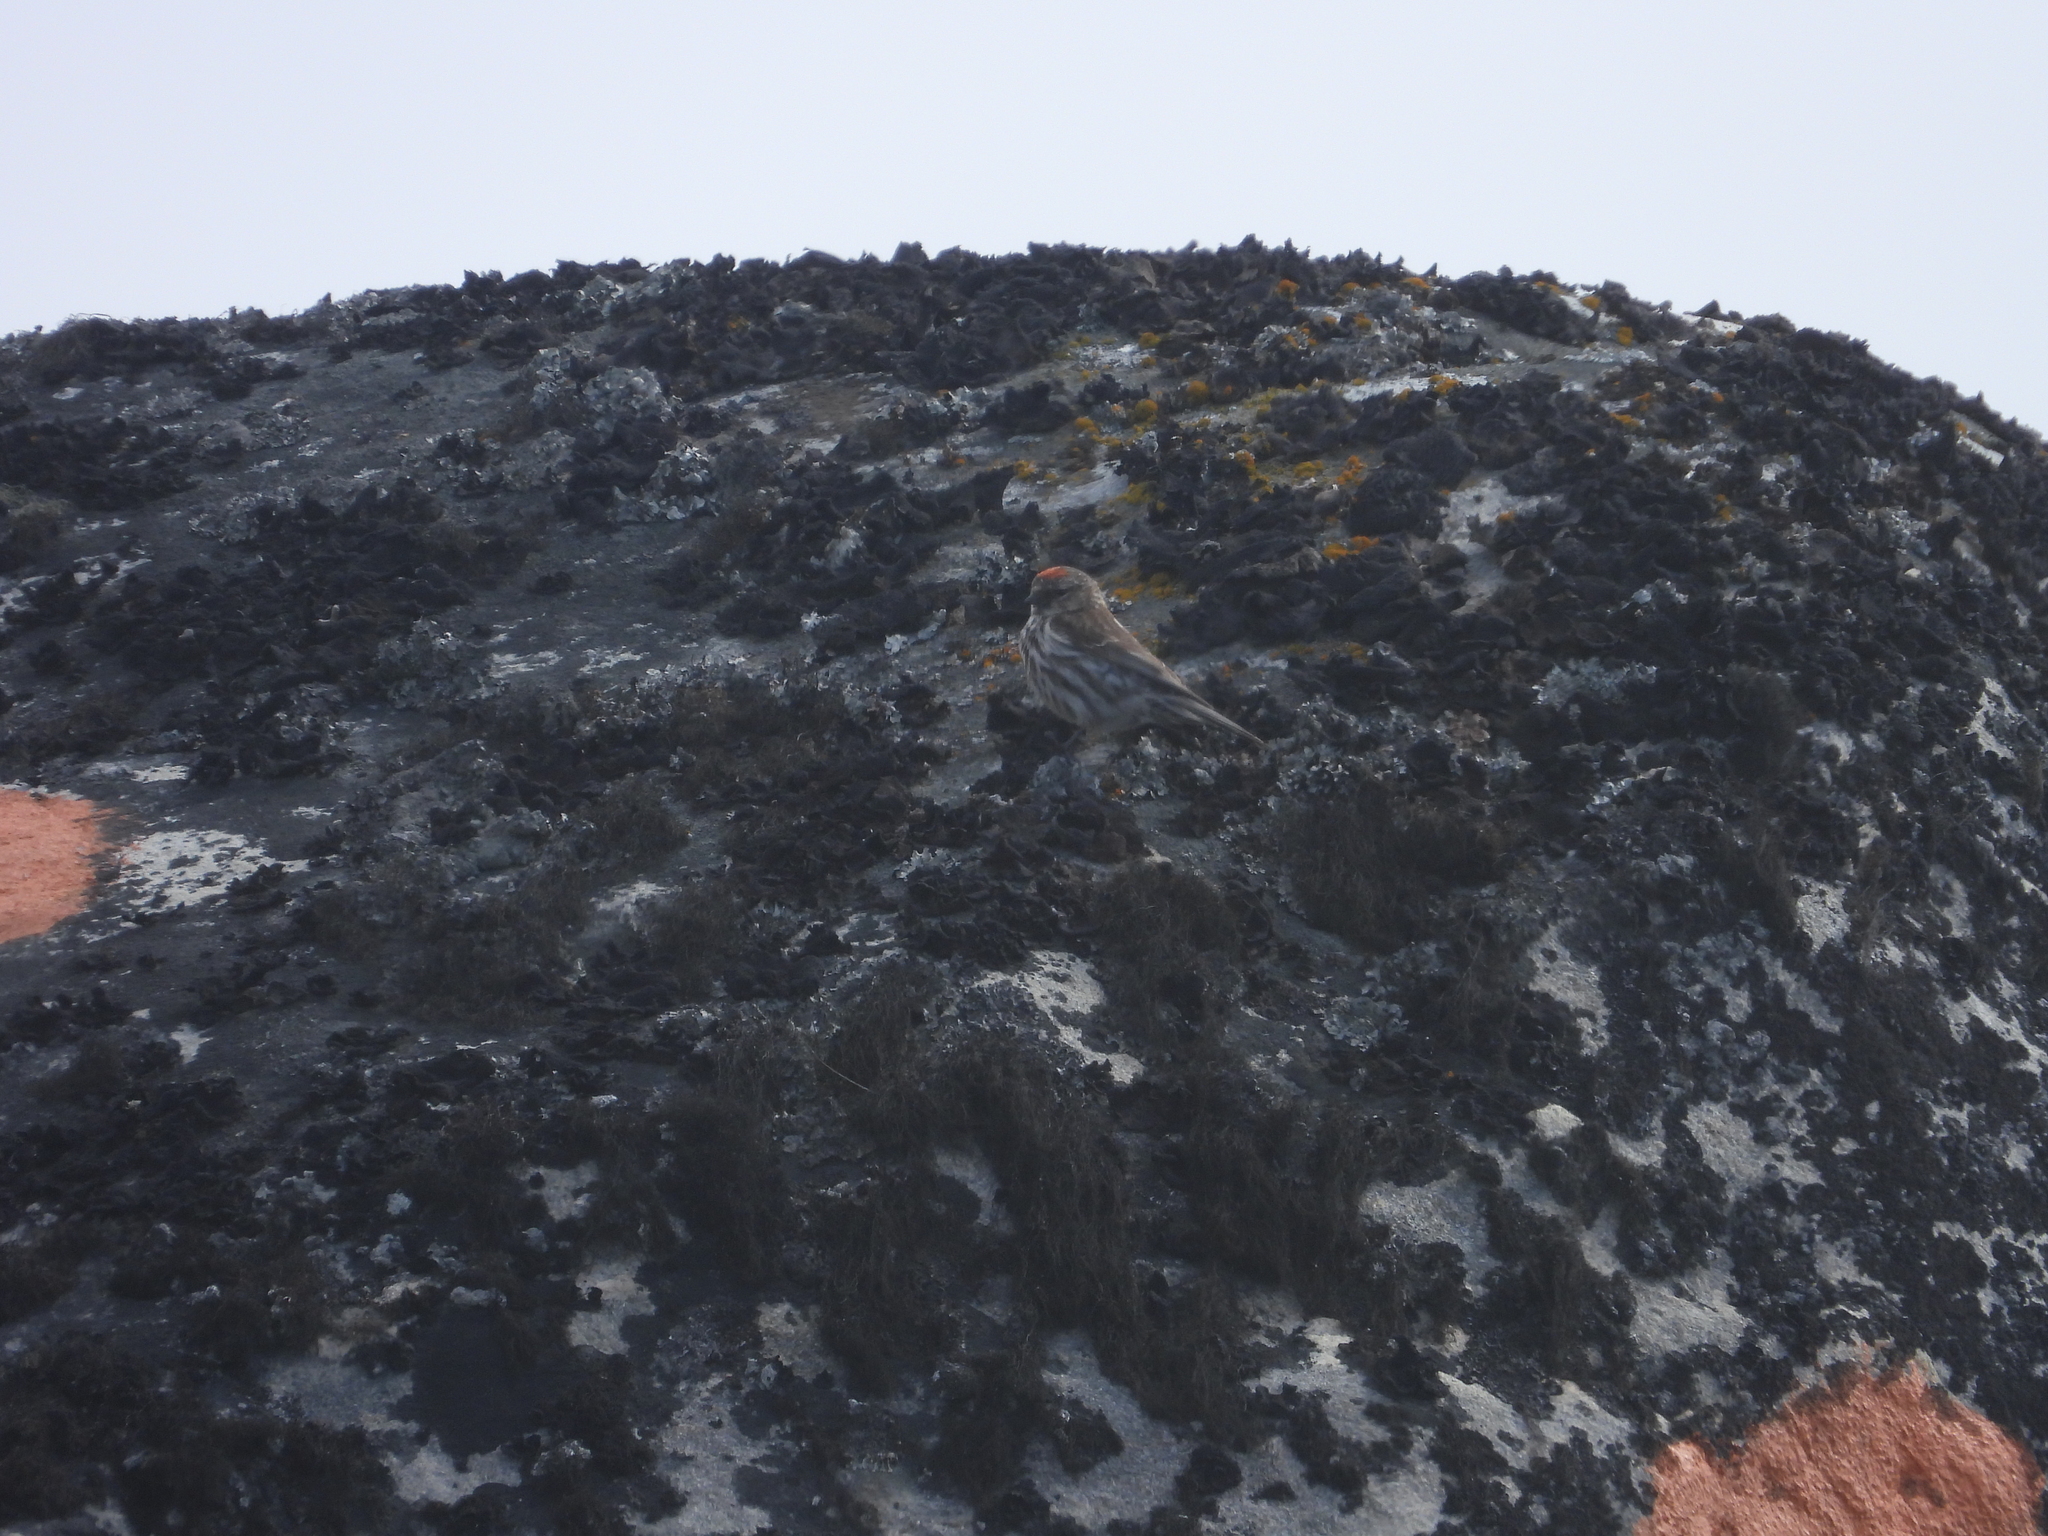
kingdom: Animalia
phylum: Chordata
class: Aves
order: Passeriformes
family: Fringillidae
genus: Acanthis
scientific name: Acanthis flammea
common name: Common redpoll
